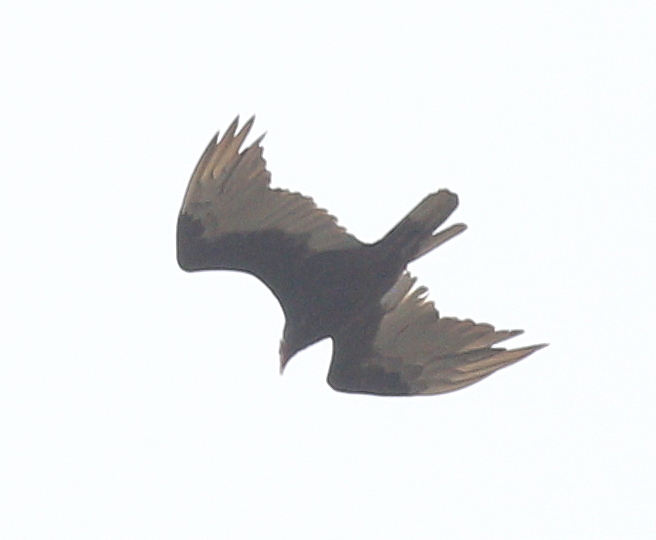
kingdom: Animalia
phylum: Chordata
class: Aves
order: Accipitriformes
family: Cathartidae
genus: Cathartes
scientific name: Cathartes aura
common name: Turkey vulture
